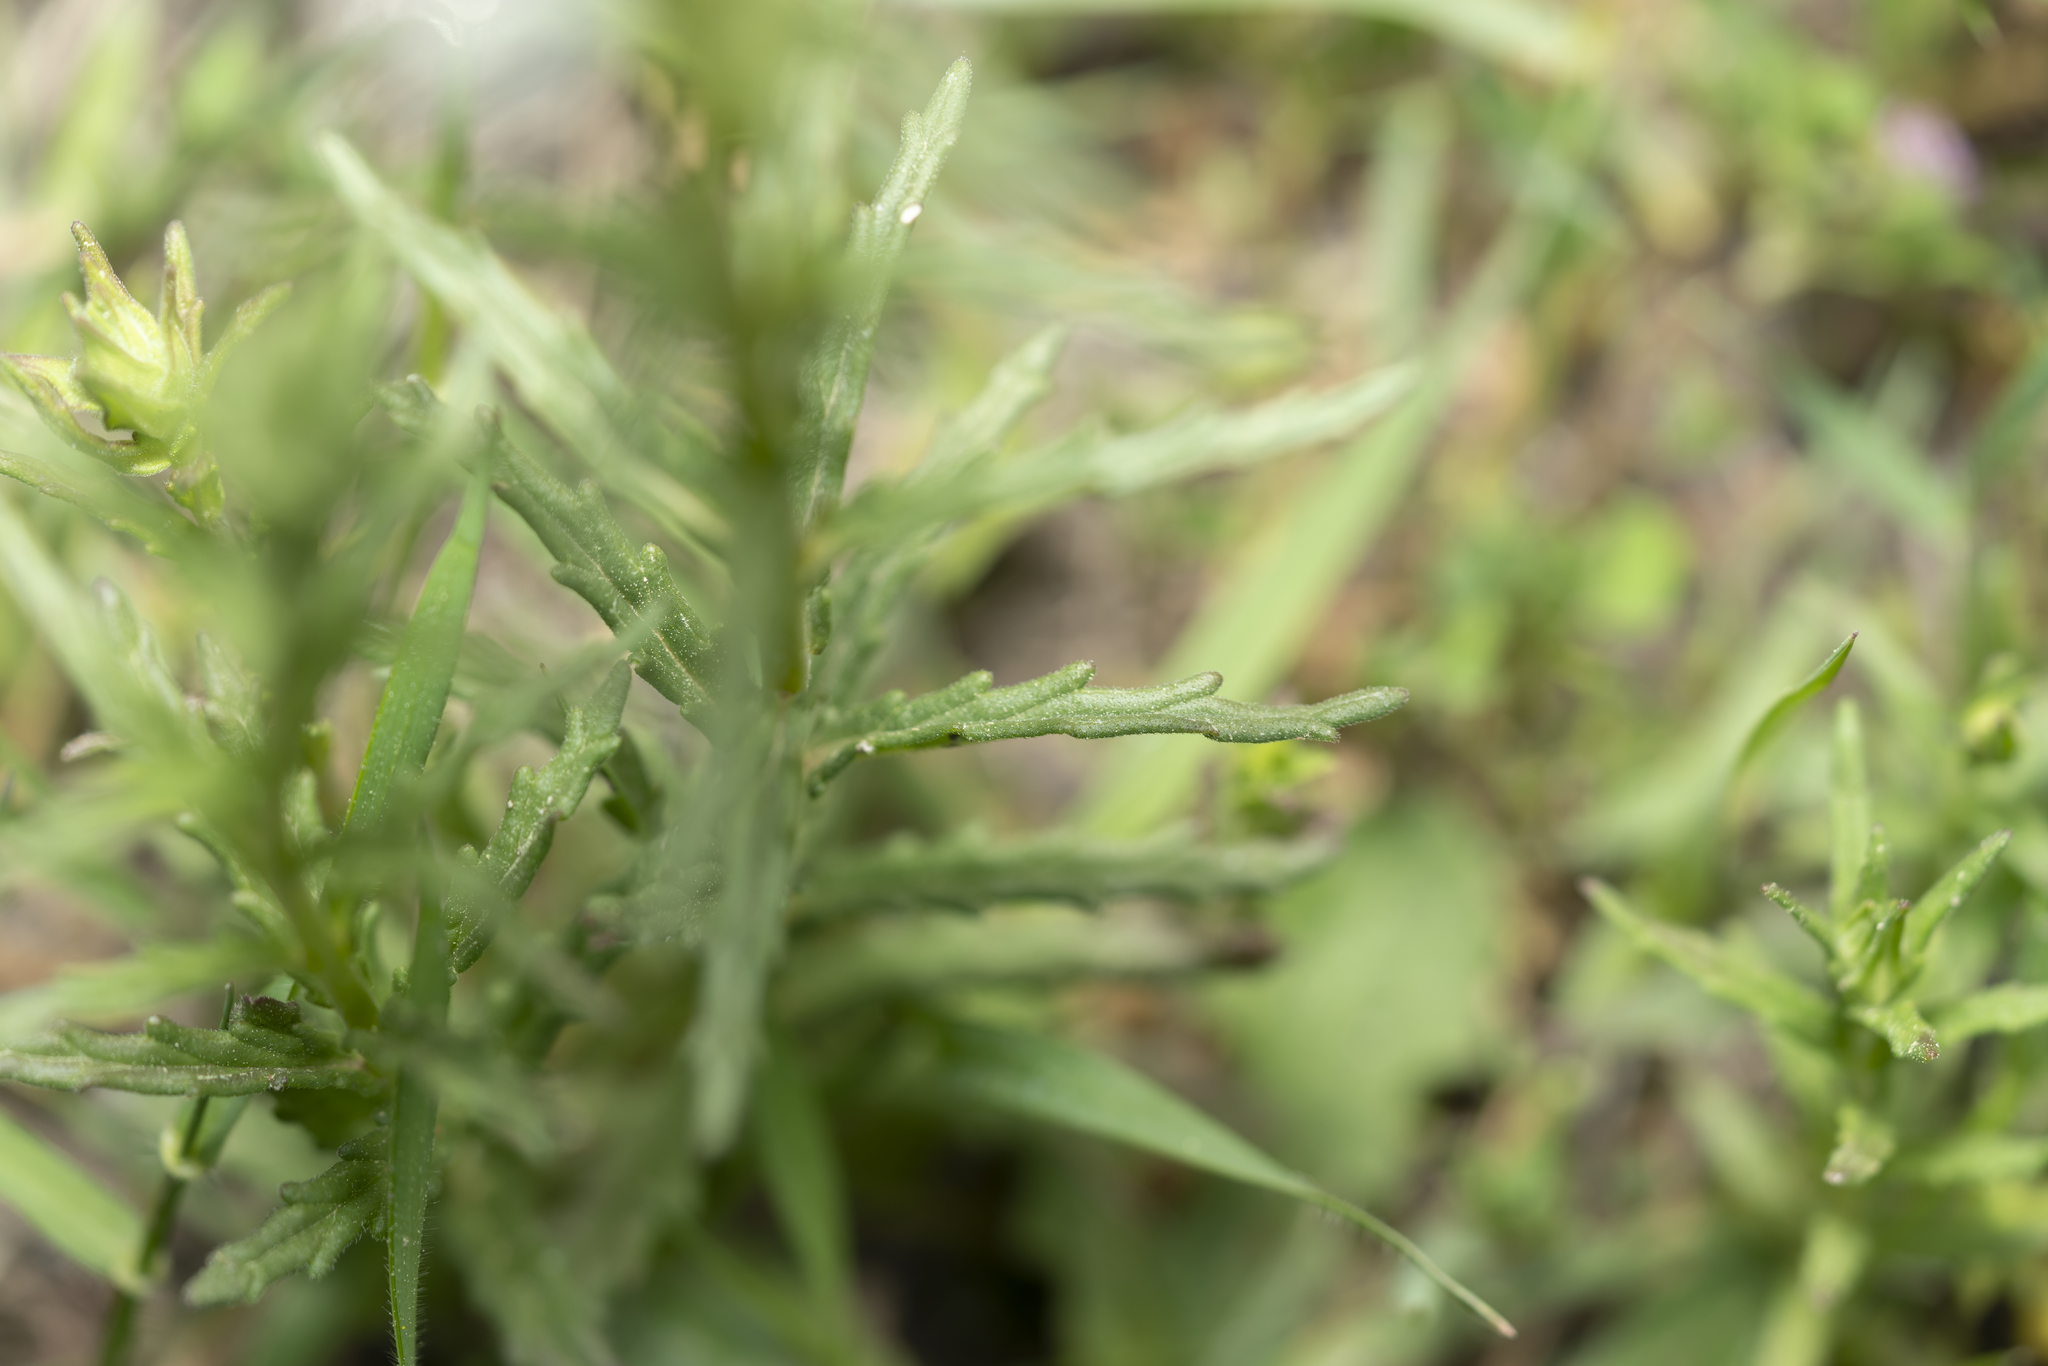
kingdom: Plantae
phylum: Tracheophyta
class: Magnoliopsida
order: Lamiales
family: Orobanchaceae
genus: Bellardia
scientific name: Bellardia trixago
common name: Mediterranean lineseed
